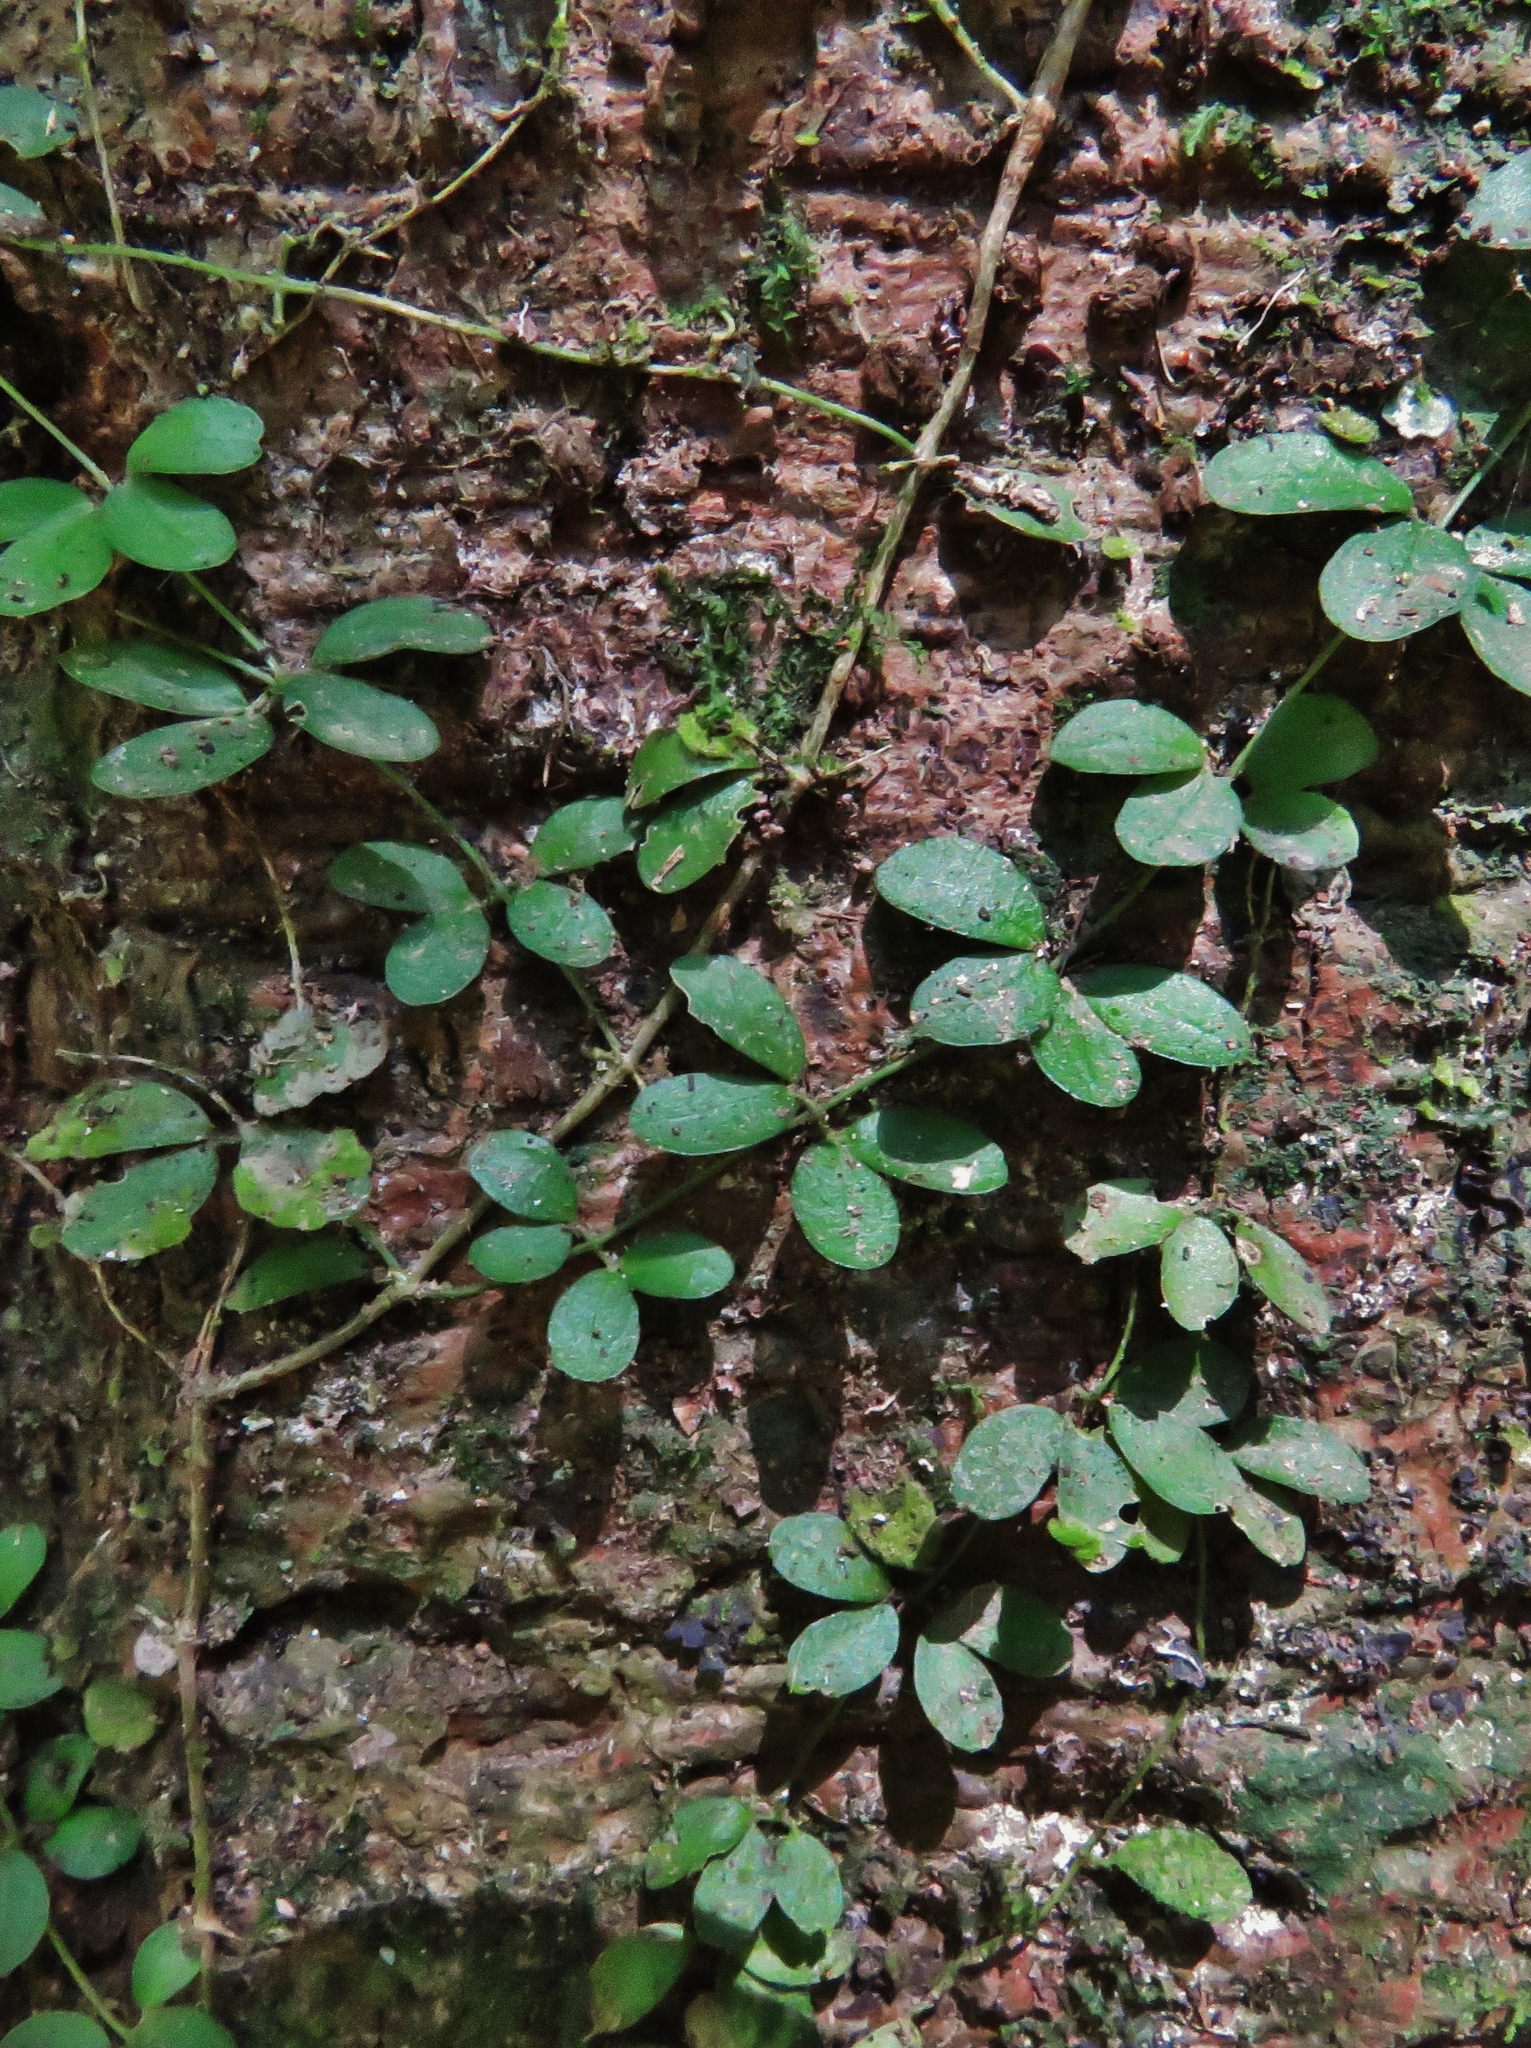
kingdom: Plantae
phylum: Tracheophyta
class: Magnoliopsida
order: Lamiales
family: Bignoniaceae
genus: Mansoa
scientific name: Mansoa parvifolia
